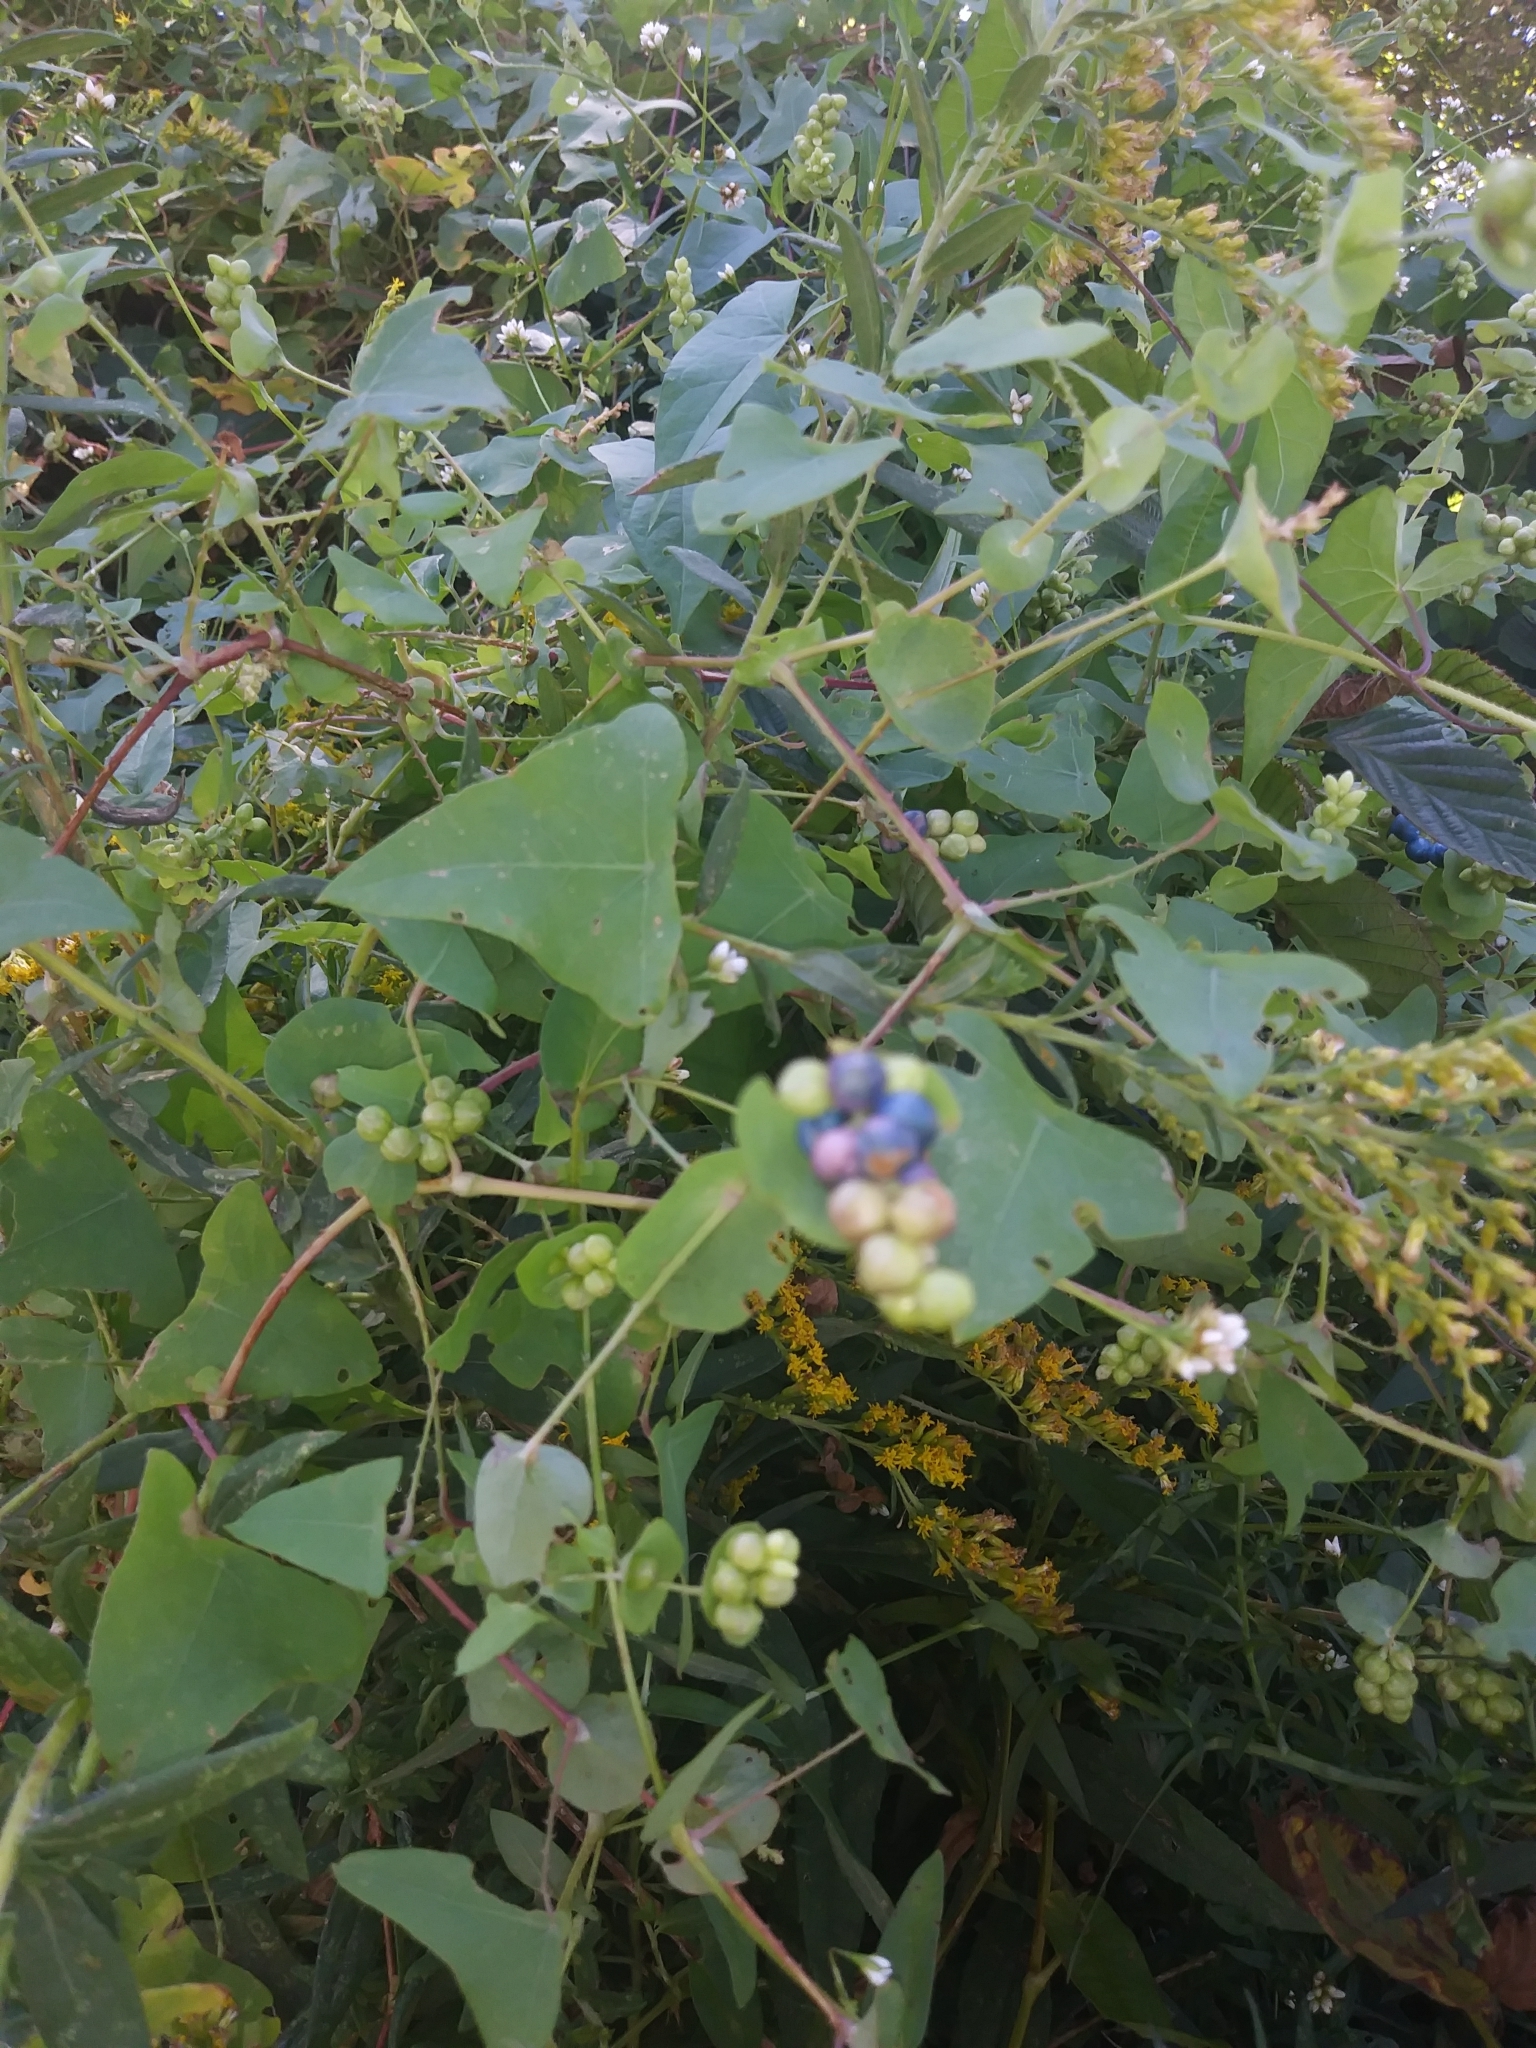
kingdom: Plantae
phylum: Tracheophyta
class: Magnoliopsida
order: Caryophyllales
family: Polygonaceae
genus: Persicaria
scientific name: Persicaria perfoliata
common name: Asiatic tearthumb
